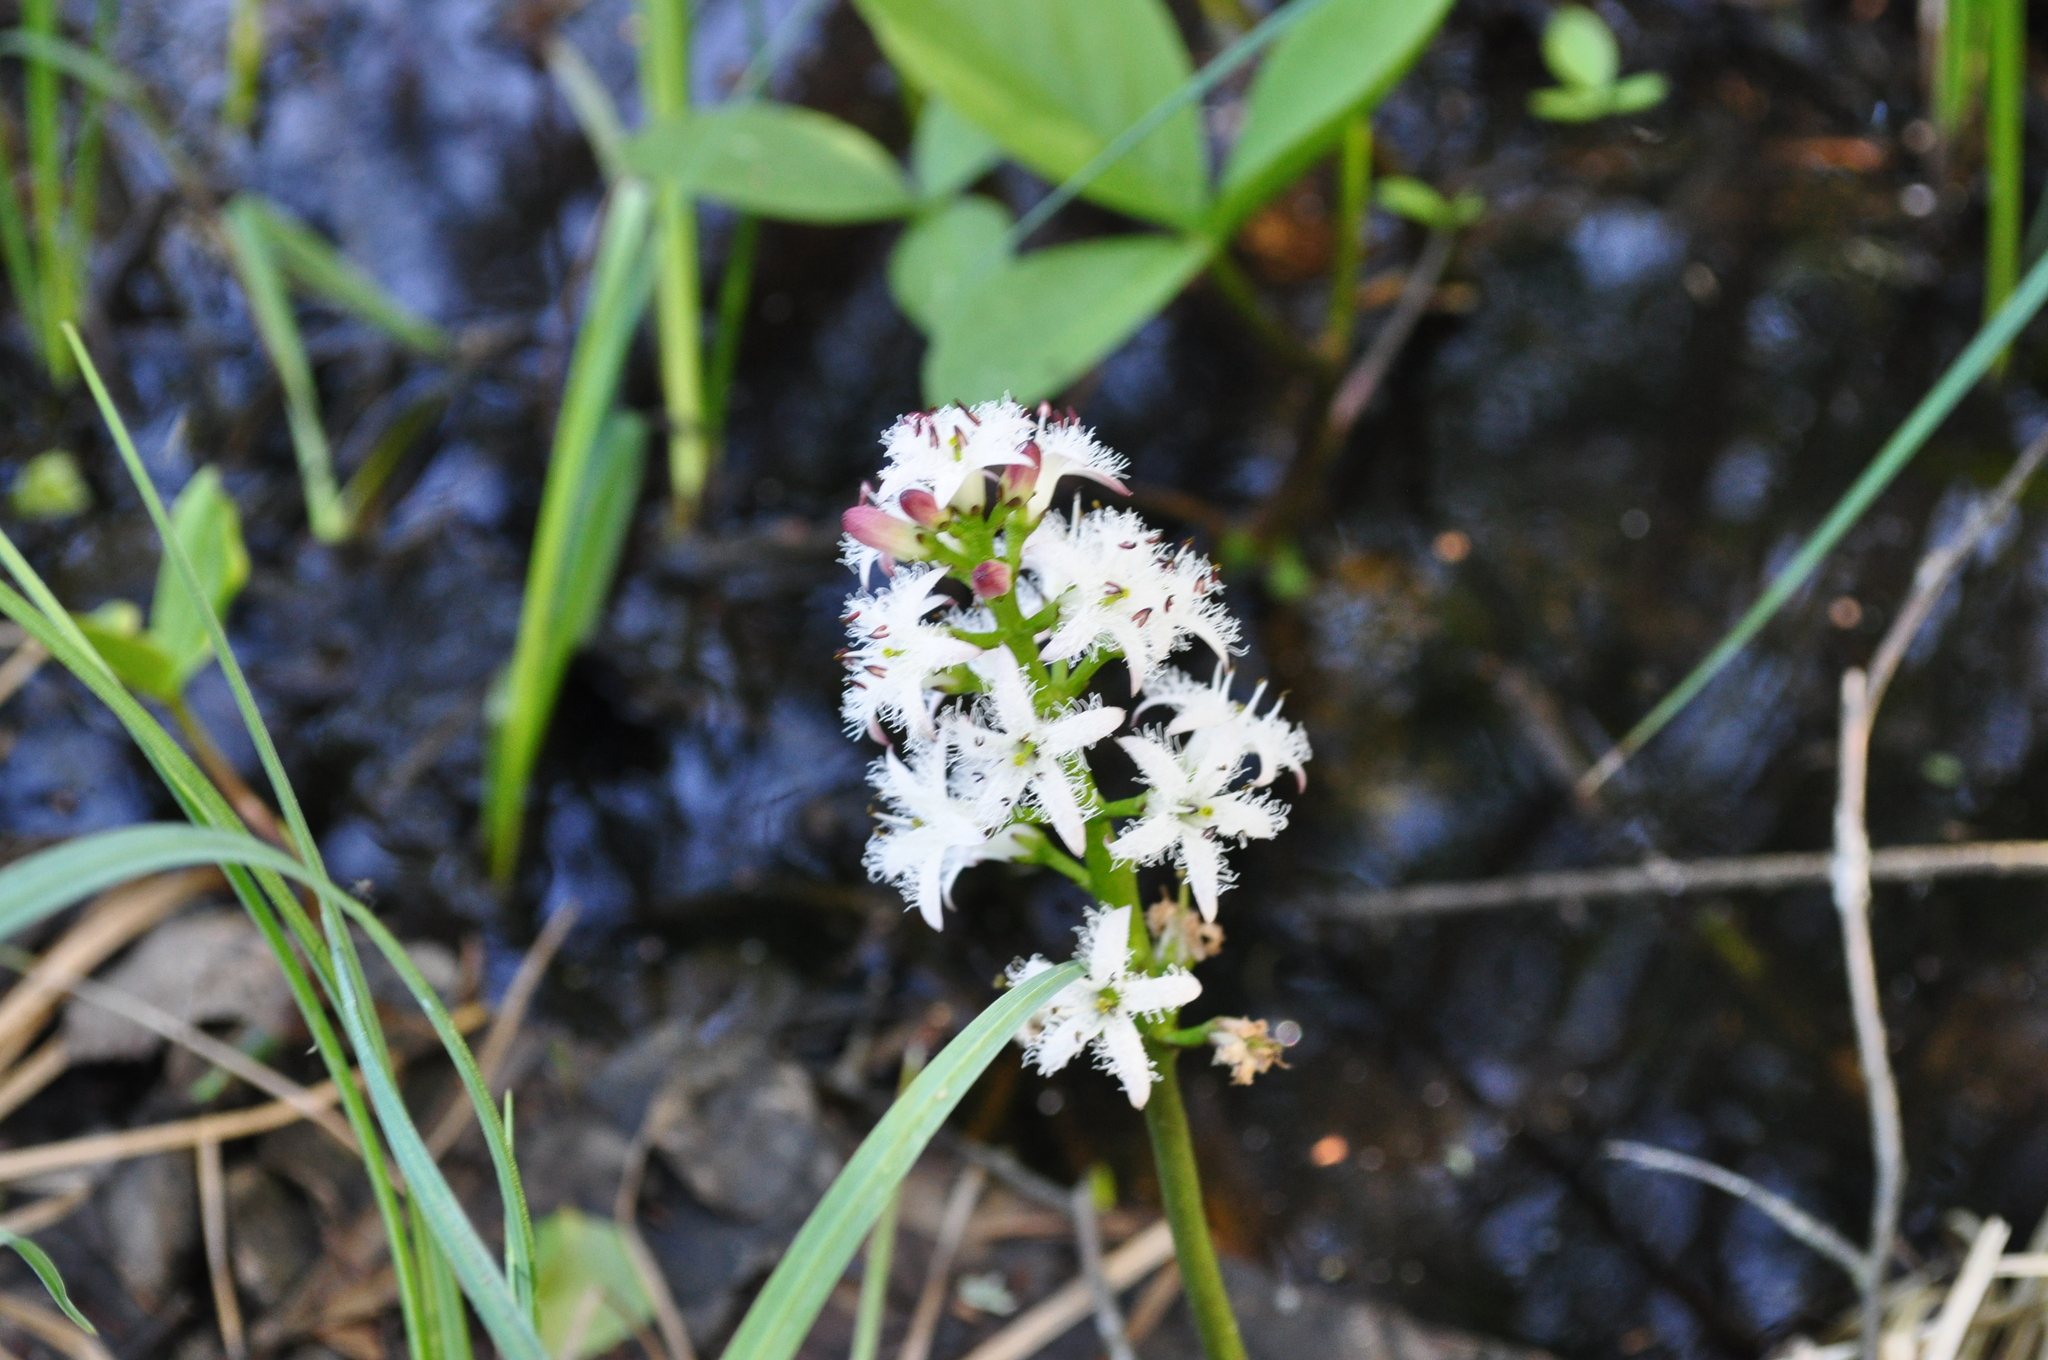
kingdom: Plantae
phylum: Tracheophyta
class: Magnoliopsida
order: Asterales
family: Menyanthaceae
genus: Menyanthes
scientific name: Menyanthes trifoliata
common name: Bogbean
